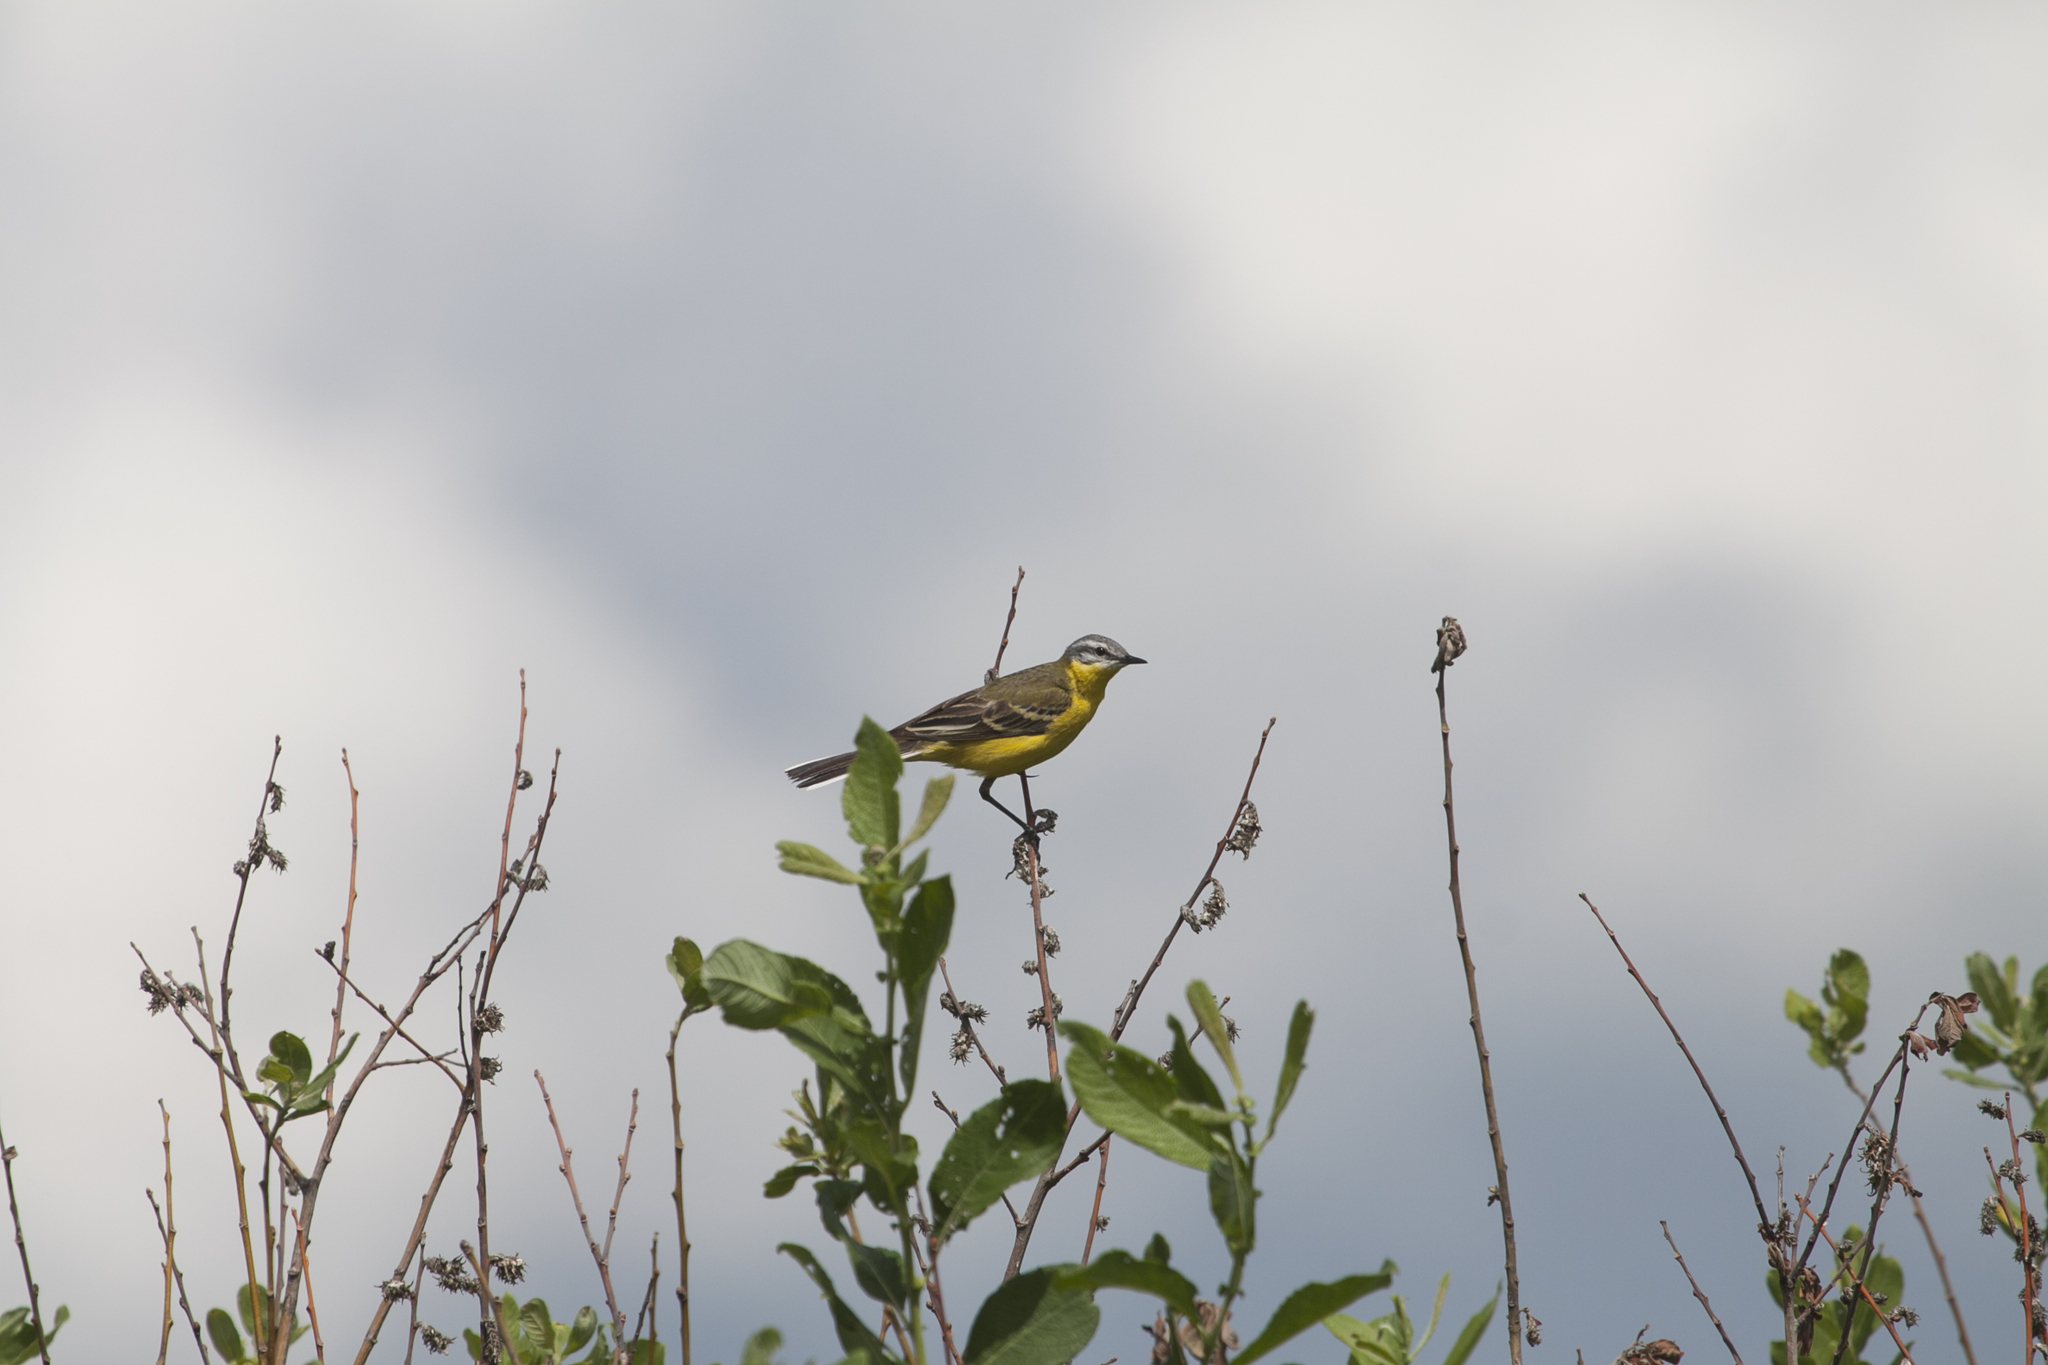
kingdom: Animalia
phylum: Chordata
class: Aves
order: Passeriformes
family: Motacillidae
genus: Motacilla
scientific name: Motacilla flava
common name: Western yellow wagtail
